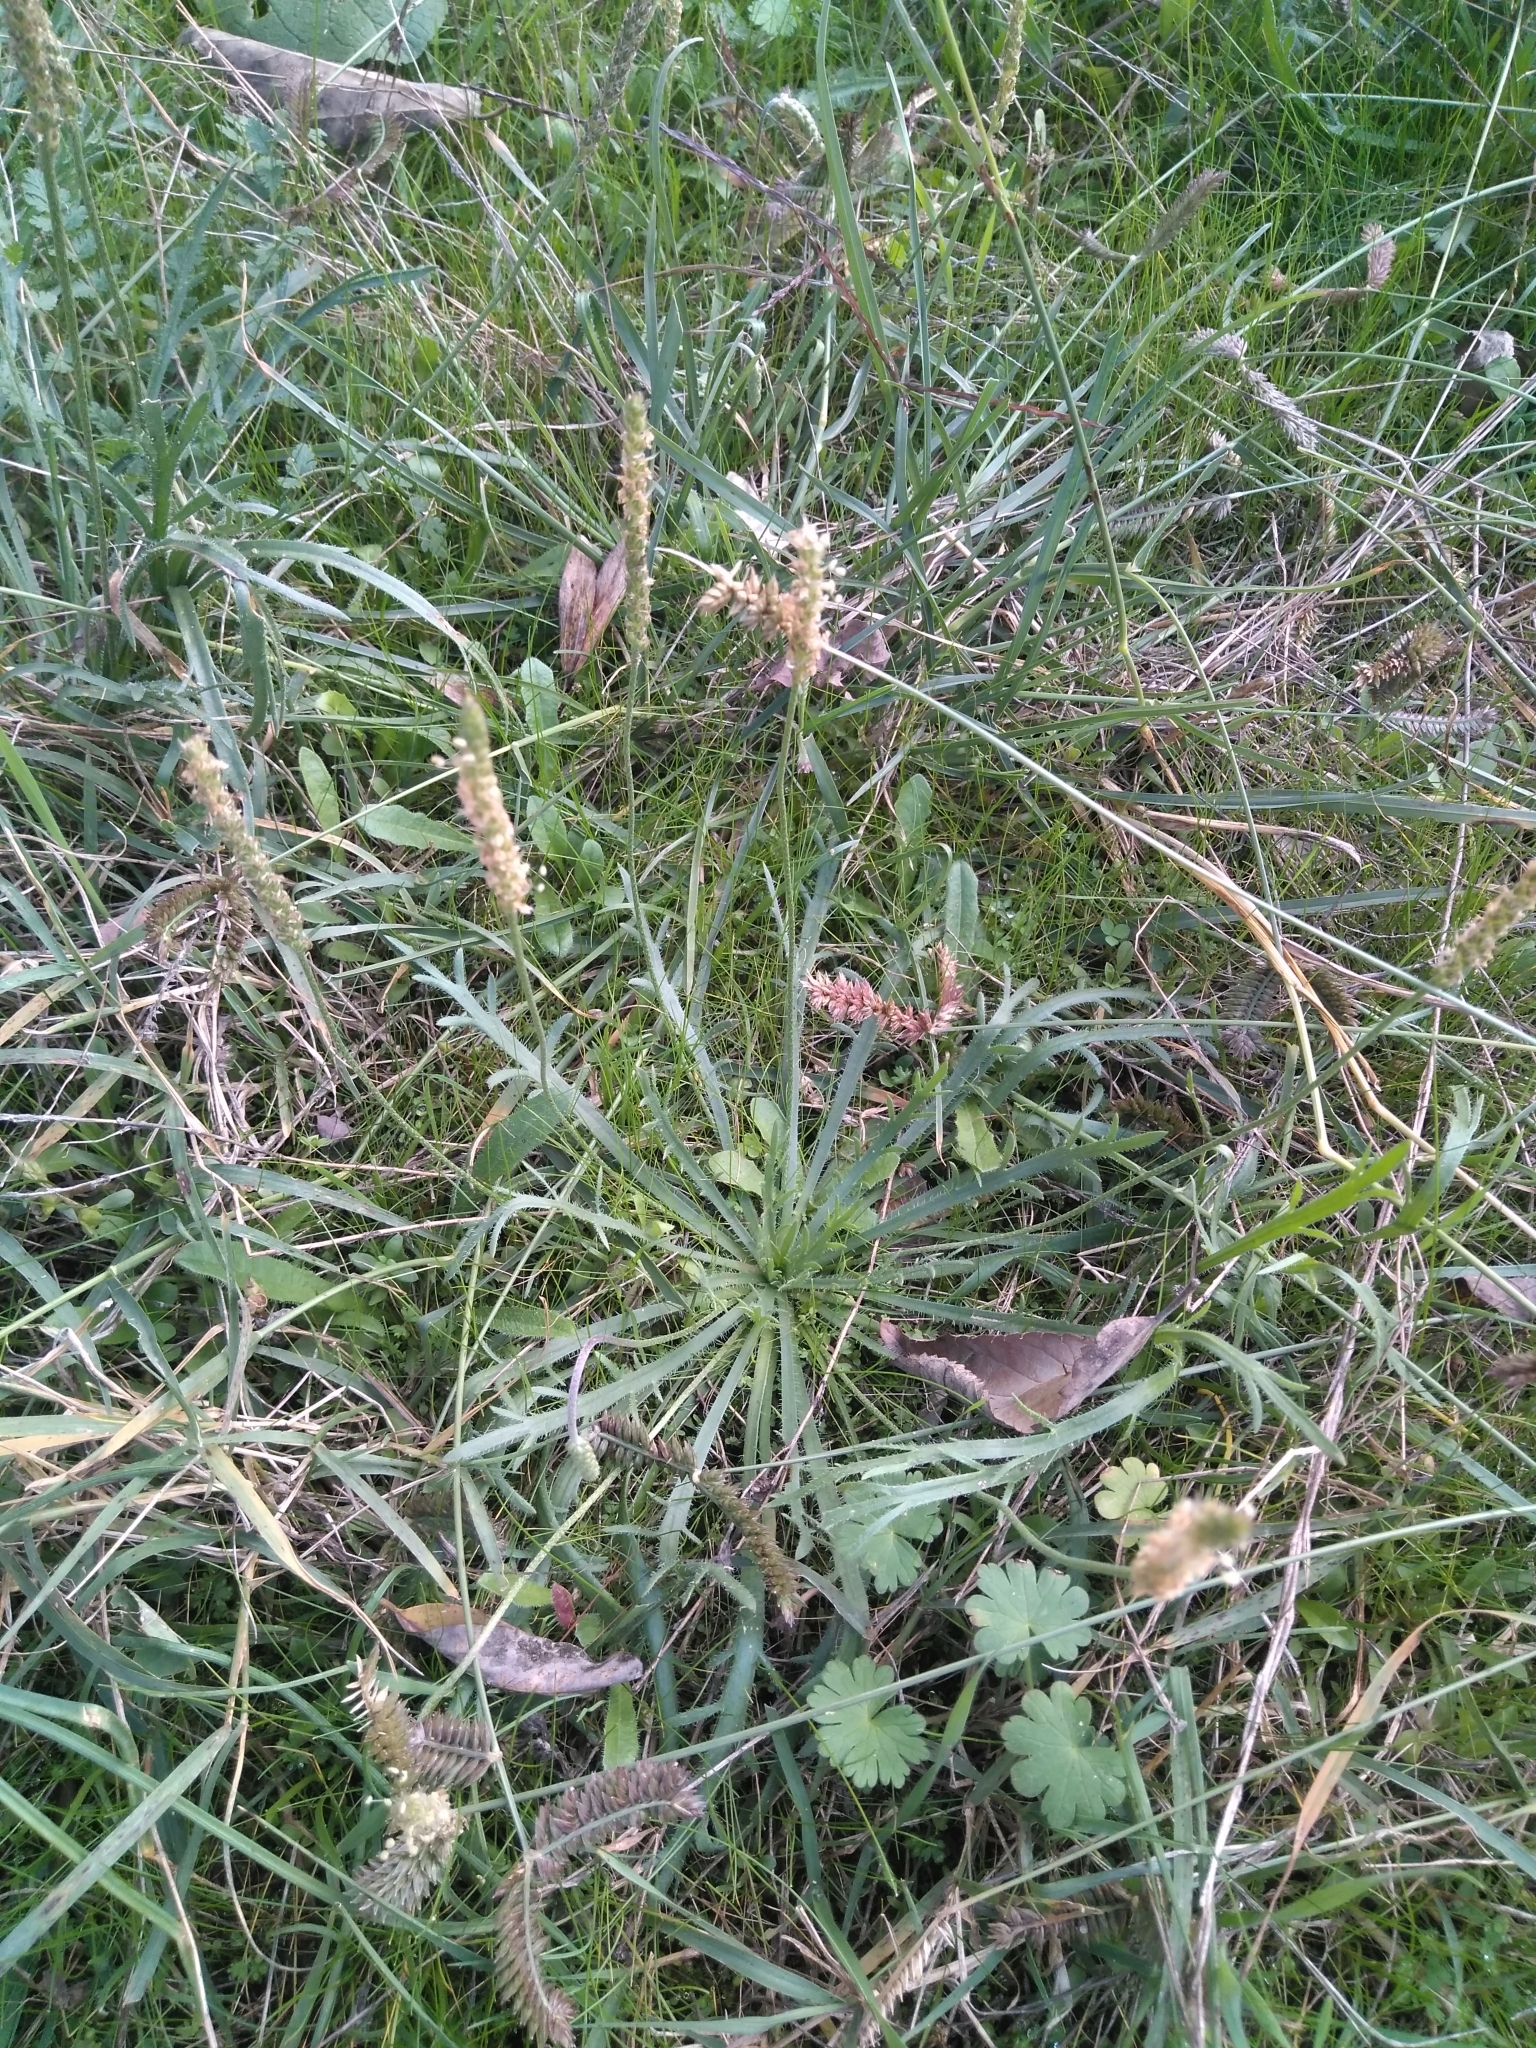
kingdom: Plantae
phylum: Tracheophyta
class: Magnoliopsida
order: Lamiales
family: Plantaginaceae
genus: Plantago
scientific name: Plantago coronopus
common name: Buck's-horn plantain
